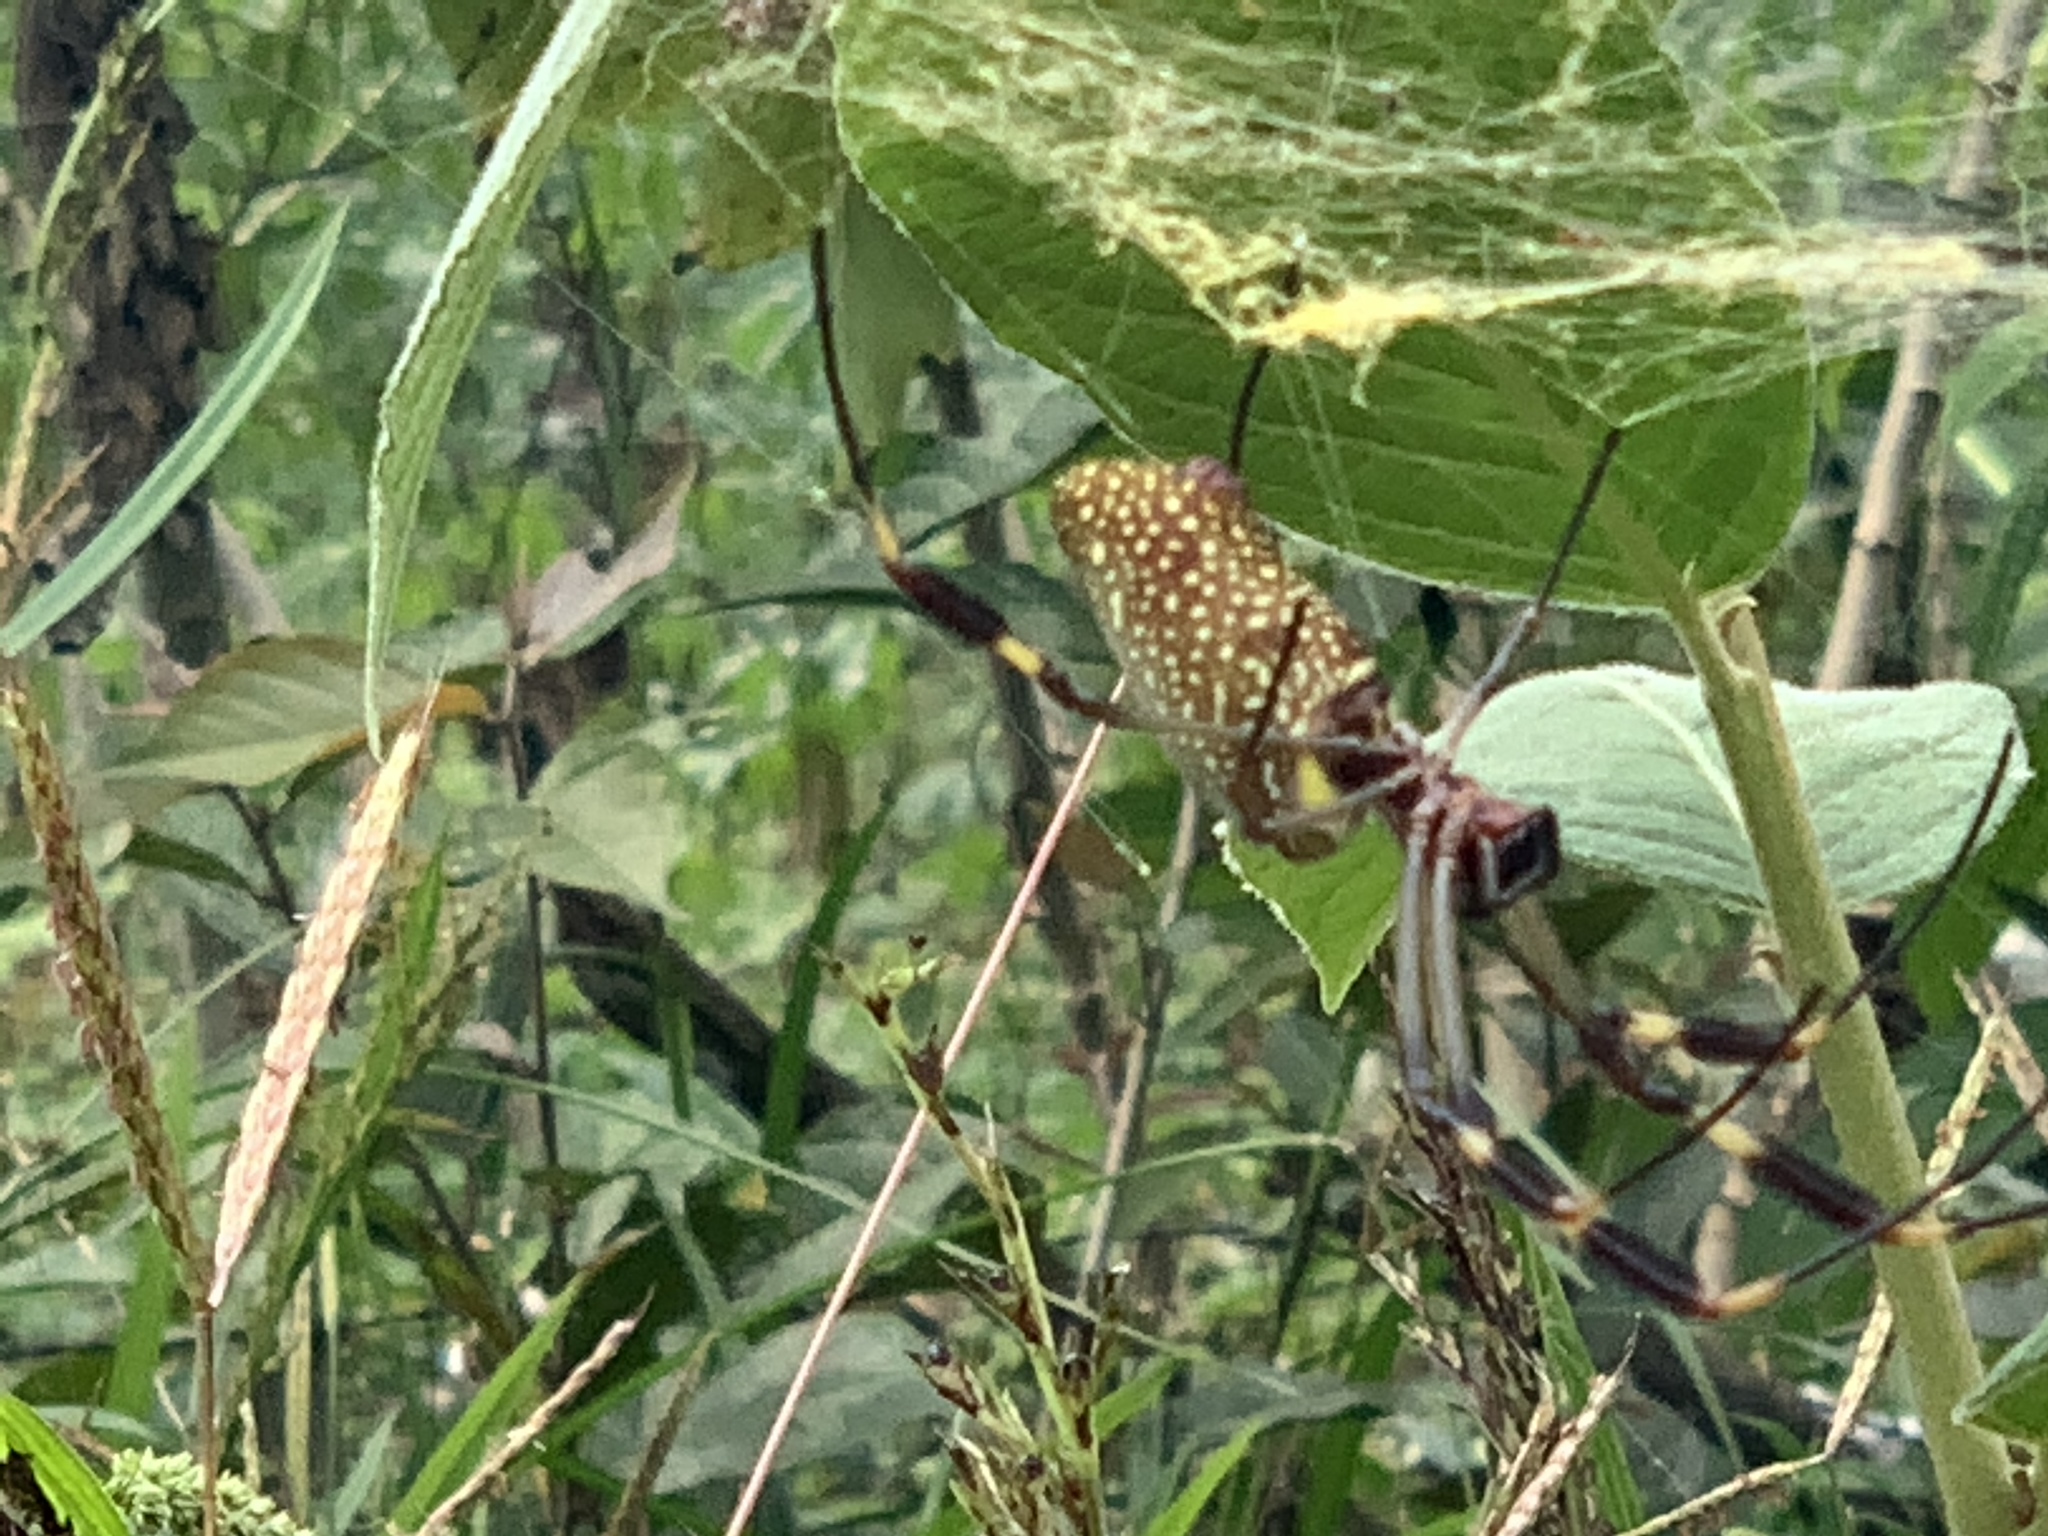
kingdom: Animalia
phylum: Arthropoda
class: Arachnida
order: Araneae
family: Araneidae
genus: Trichonephila
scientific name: Trichonephila clavipes
